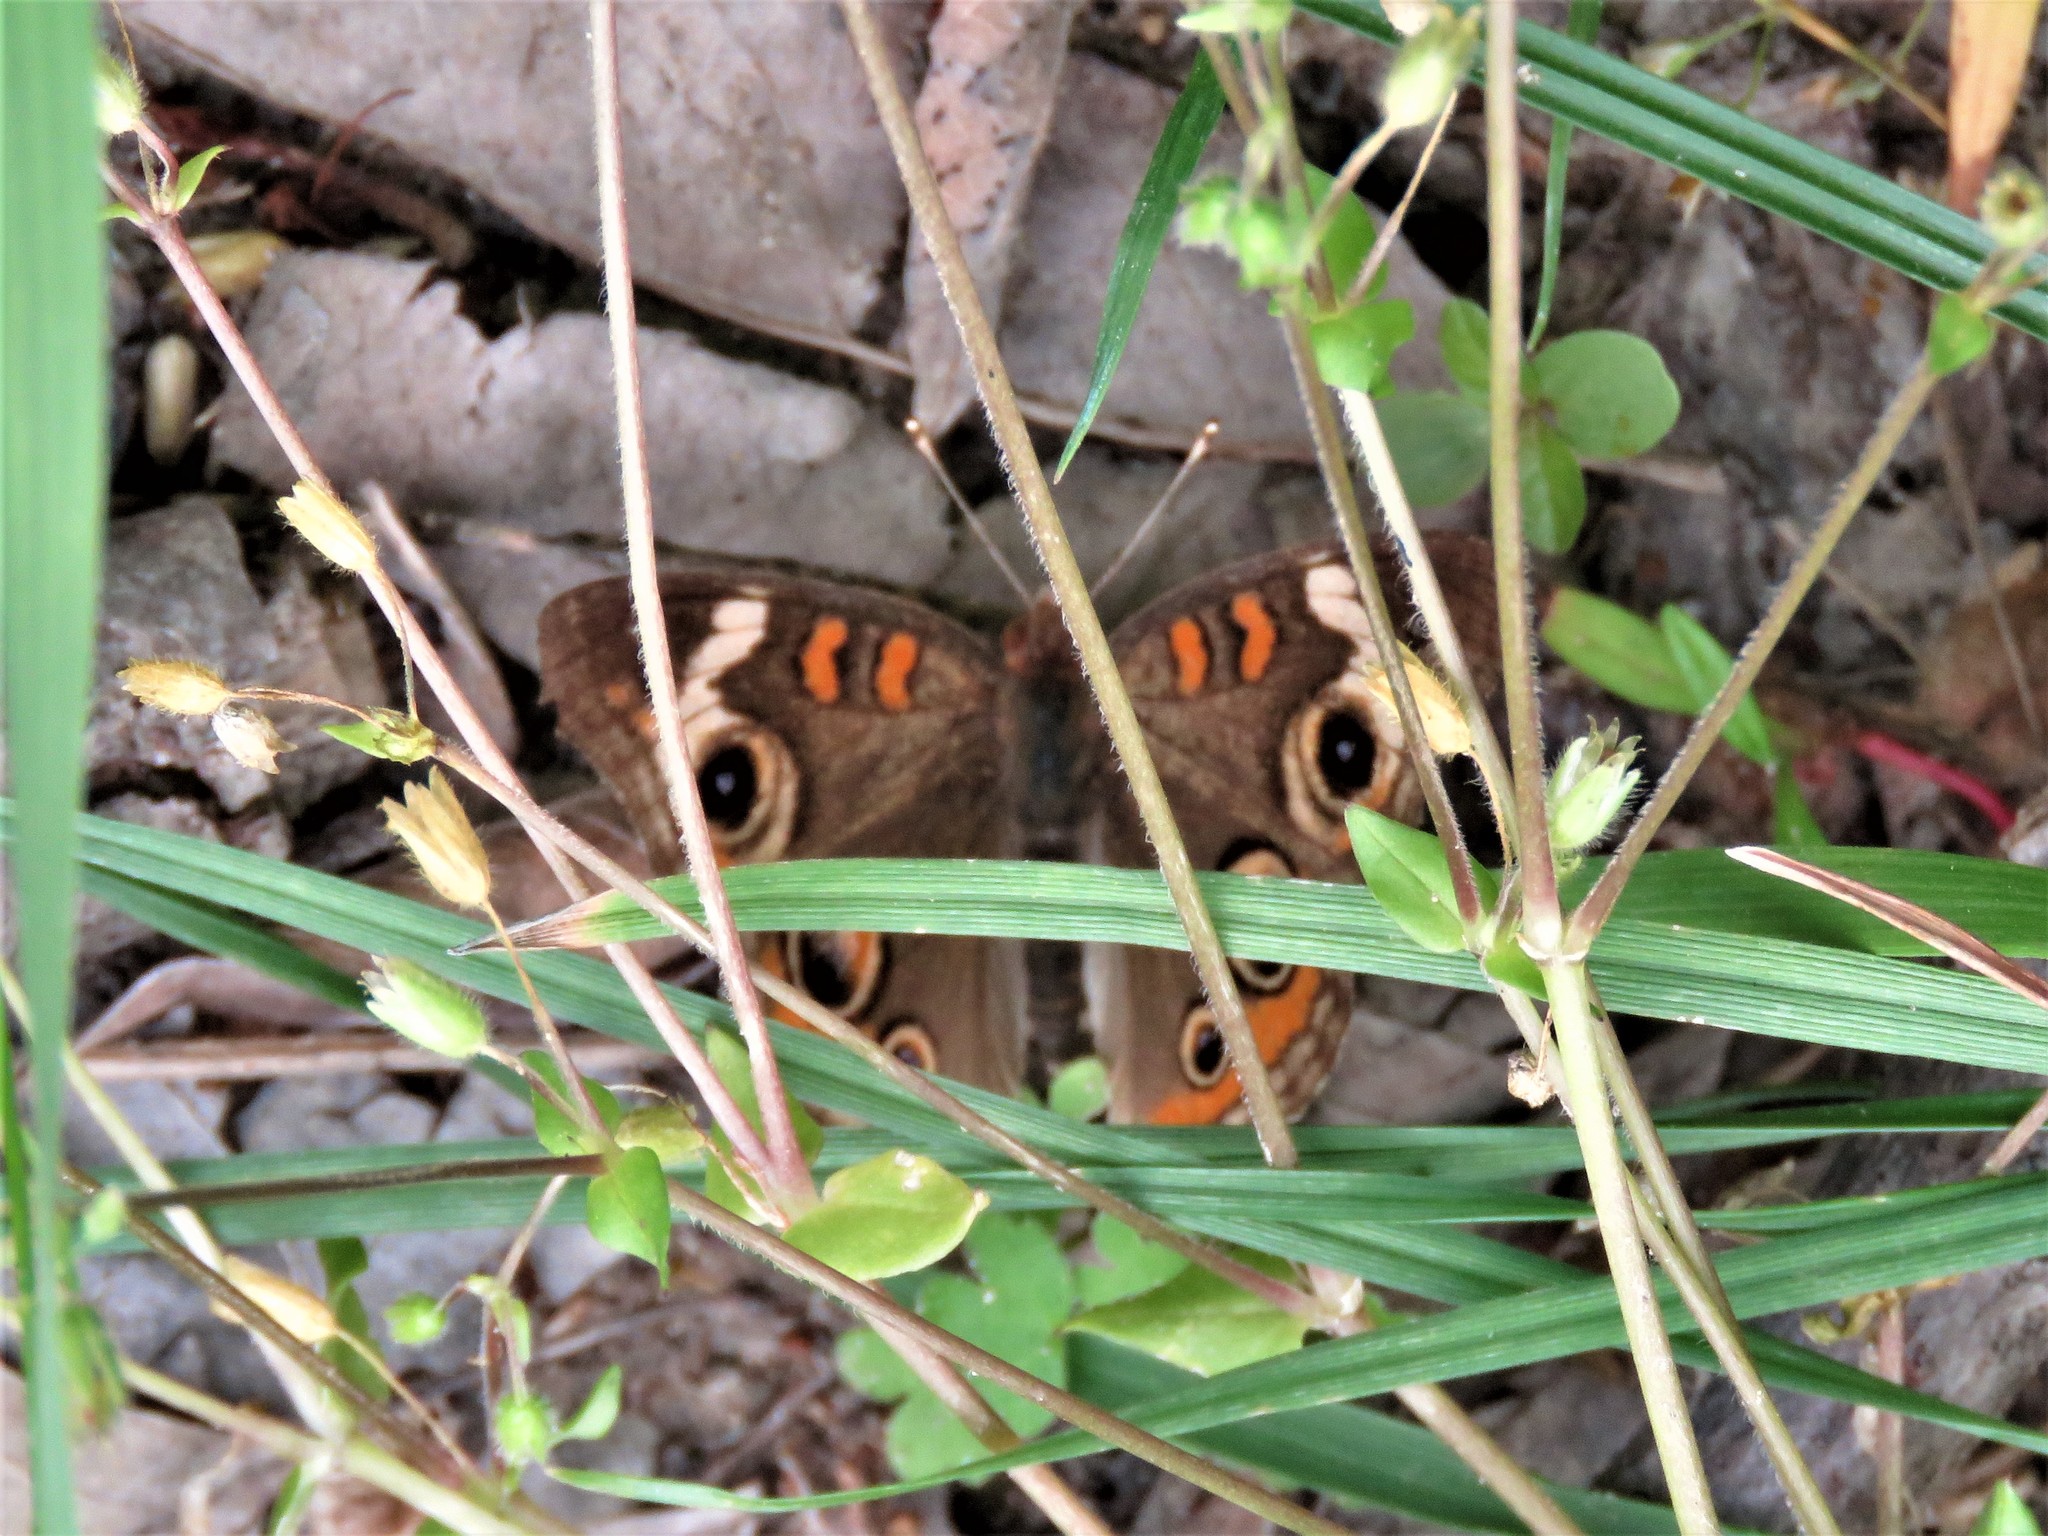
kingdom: Animalia
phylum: Arthropoda
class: Insecta
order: Lepidoptera
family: Nymphalidae
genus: Junonia
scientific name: Junonia coenia
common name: Common buckeye
